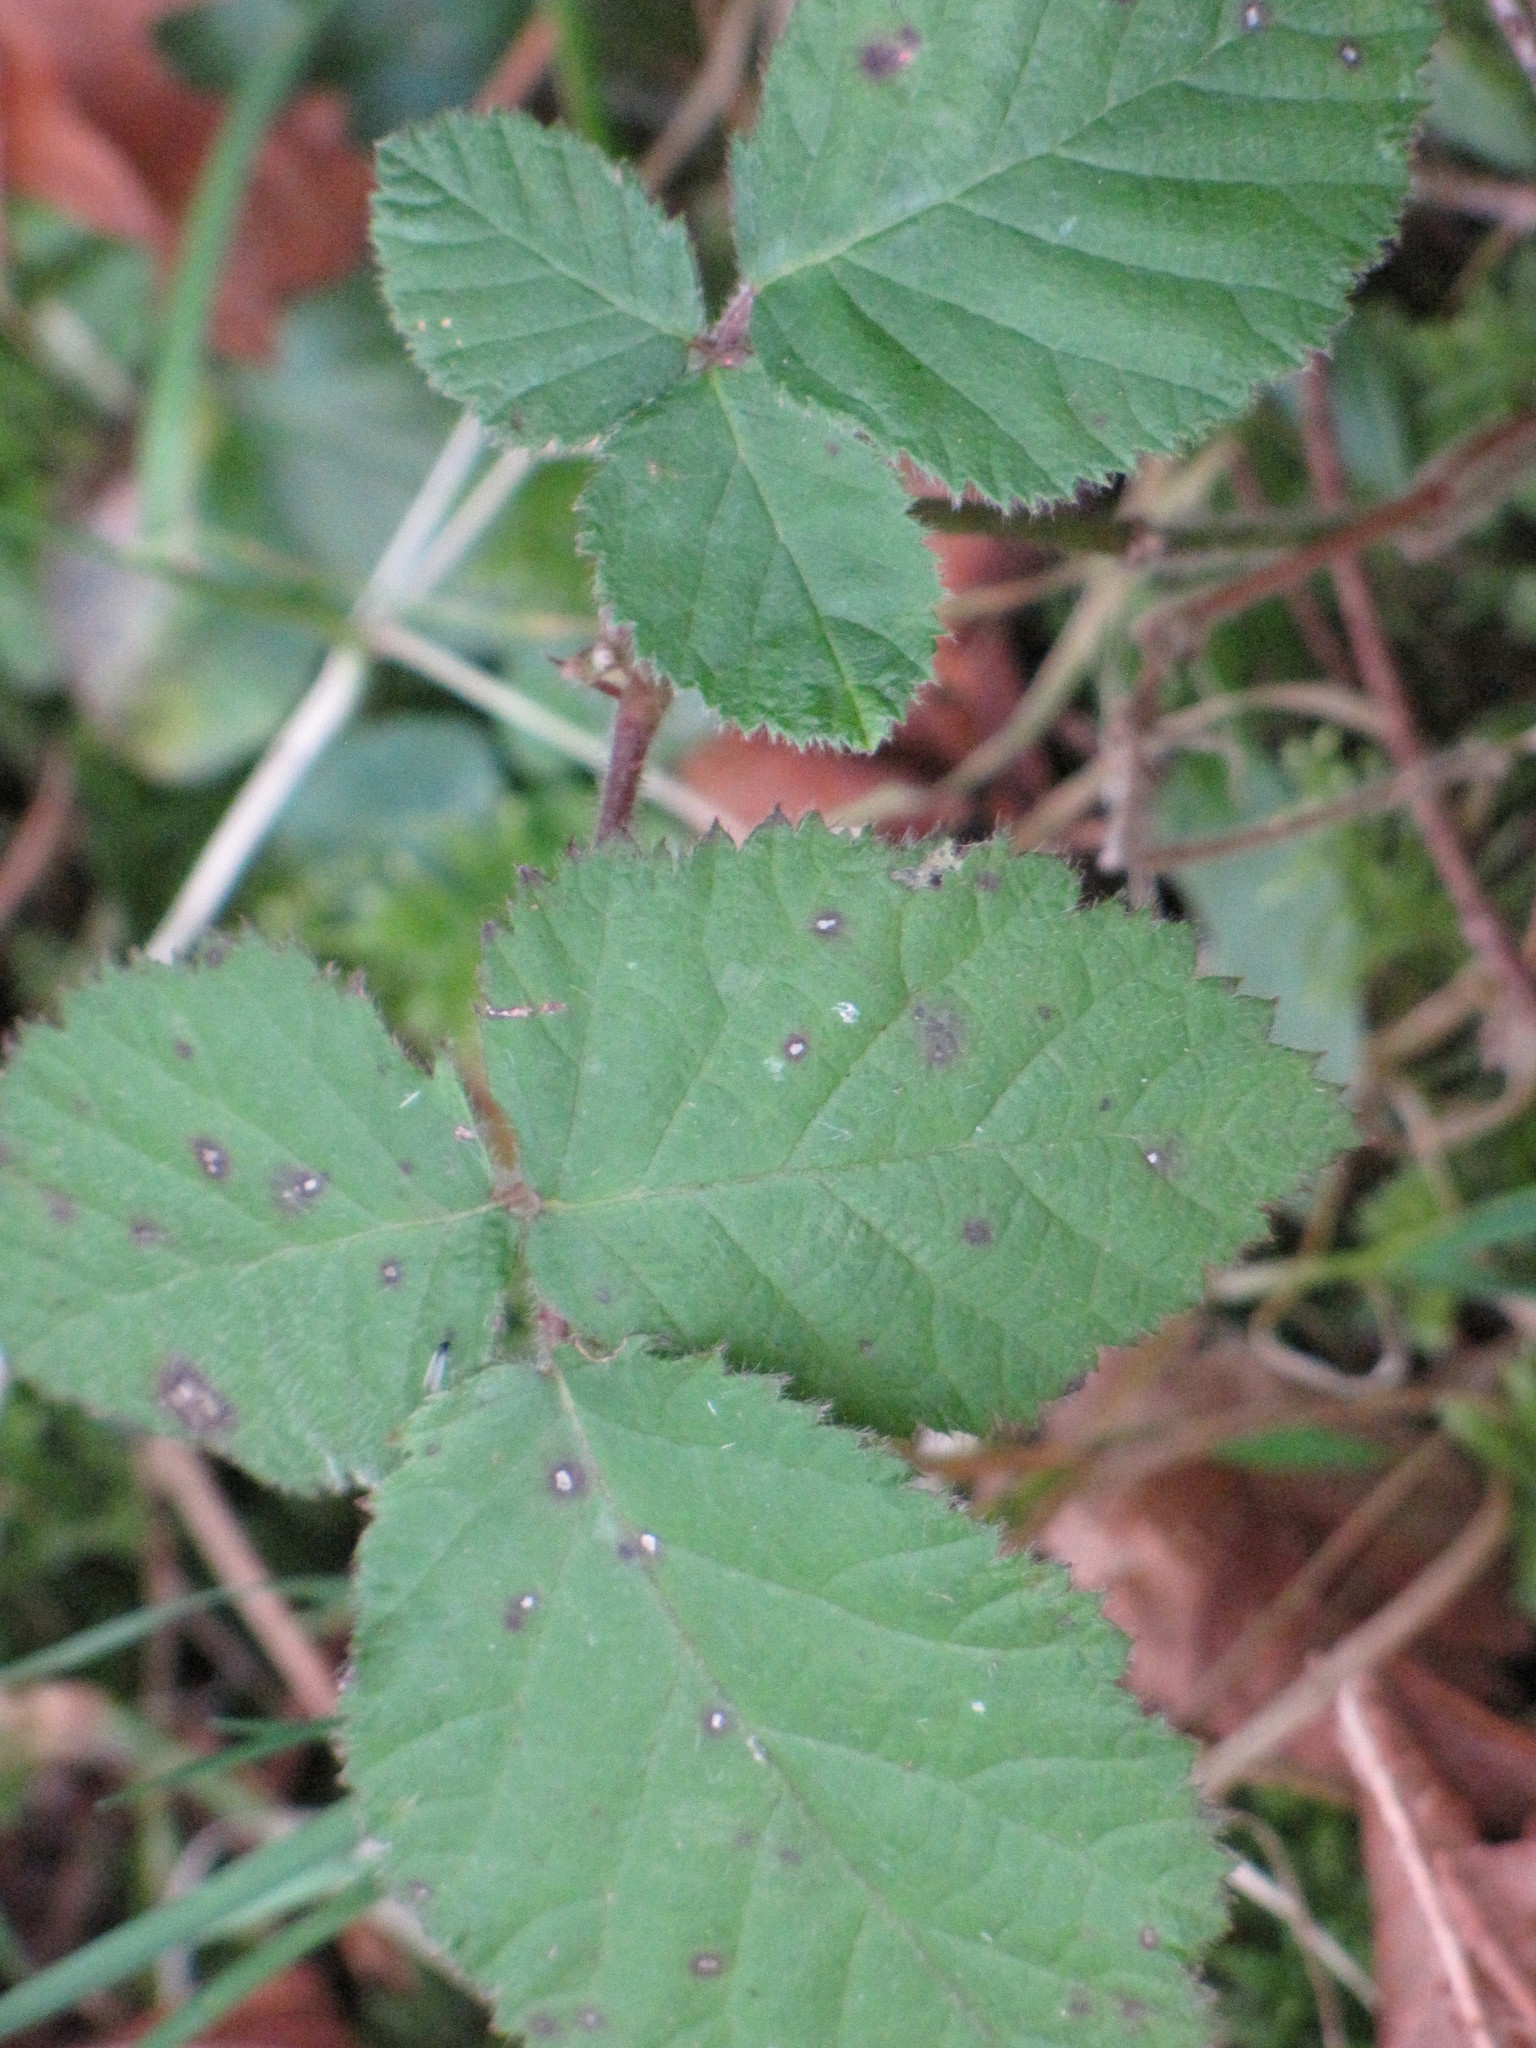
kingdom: Plantae
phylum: Tracheophyta
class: Magnoliopsida
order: Rosales
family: Rosaceae
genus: Rubus
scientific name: Rubus bifrons
